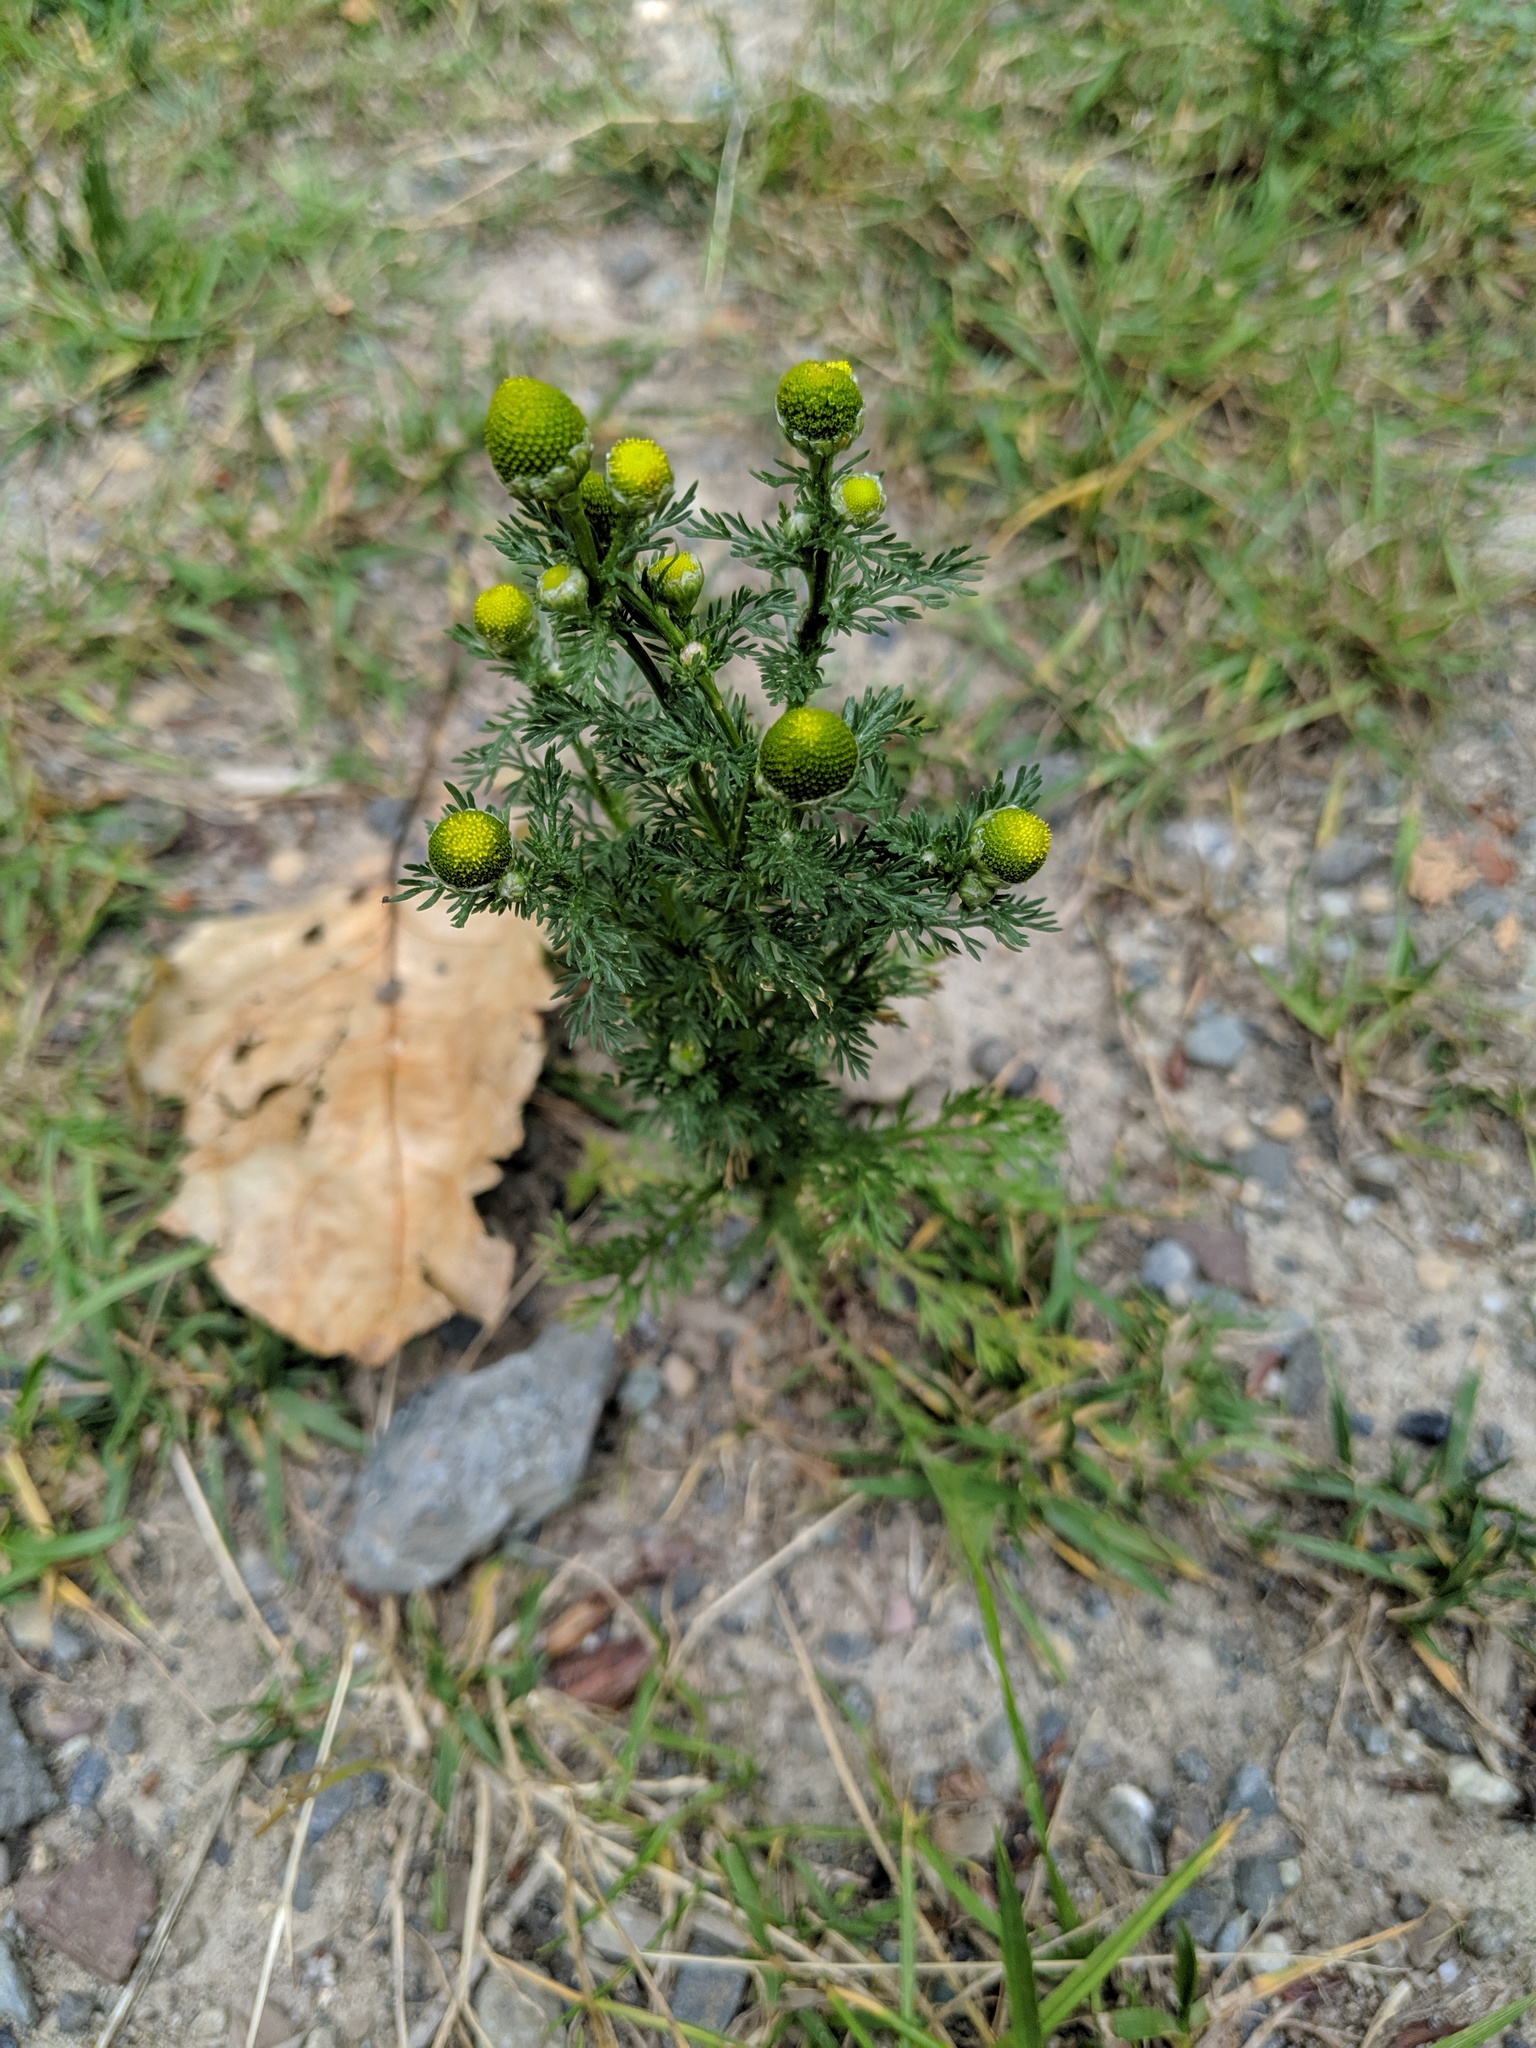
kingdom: Plantae
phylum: Tracheophyta
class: Magnoliopsida
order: Asterales
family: Asteraceae
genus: Matricaria
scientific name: Matricaria discoidea
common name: Disc mayweed
